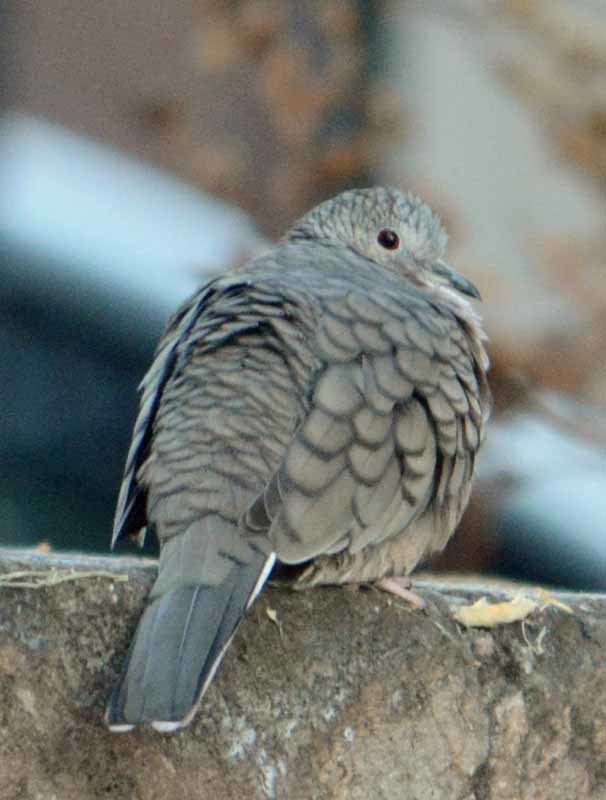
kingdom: Animalia
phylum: Chordata
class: Aves
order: Columbiformes
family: Columbidae
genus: Columbina
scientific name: Columbina inca
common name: Inca dove
